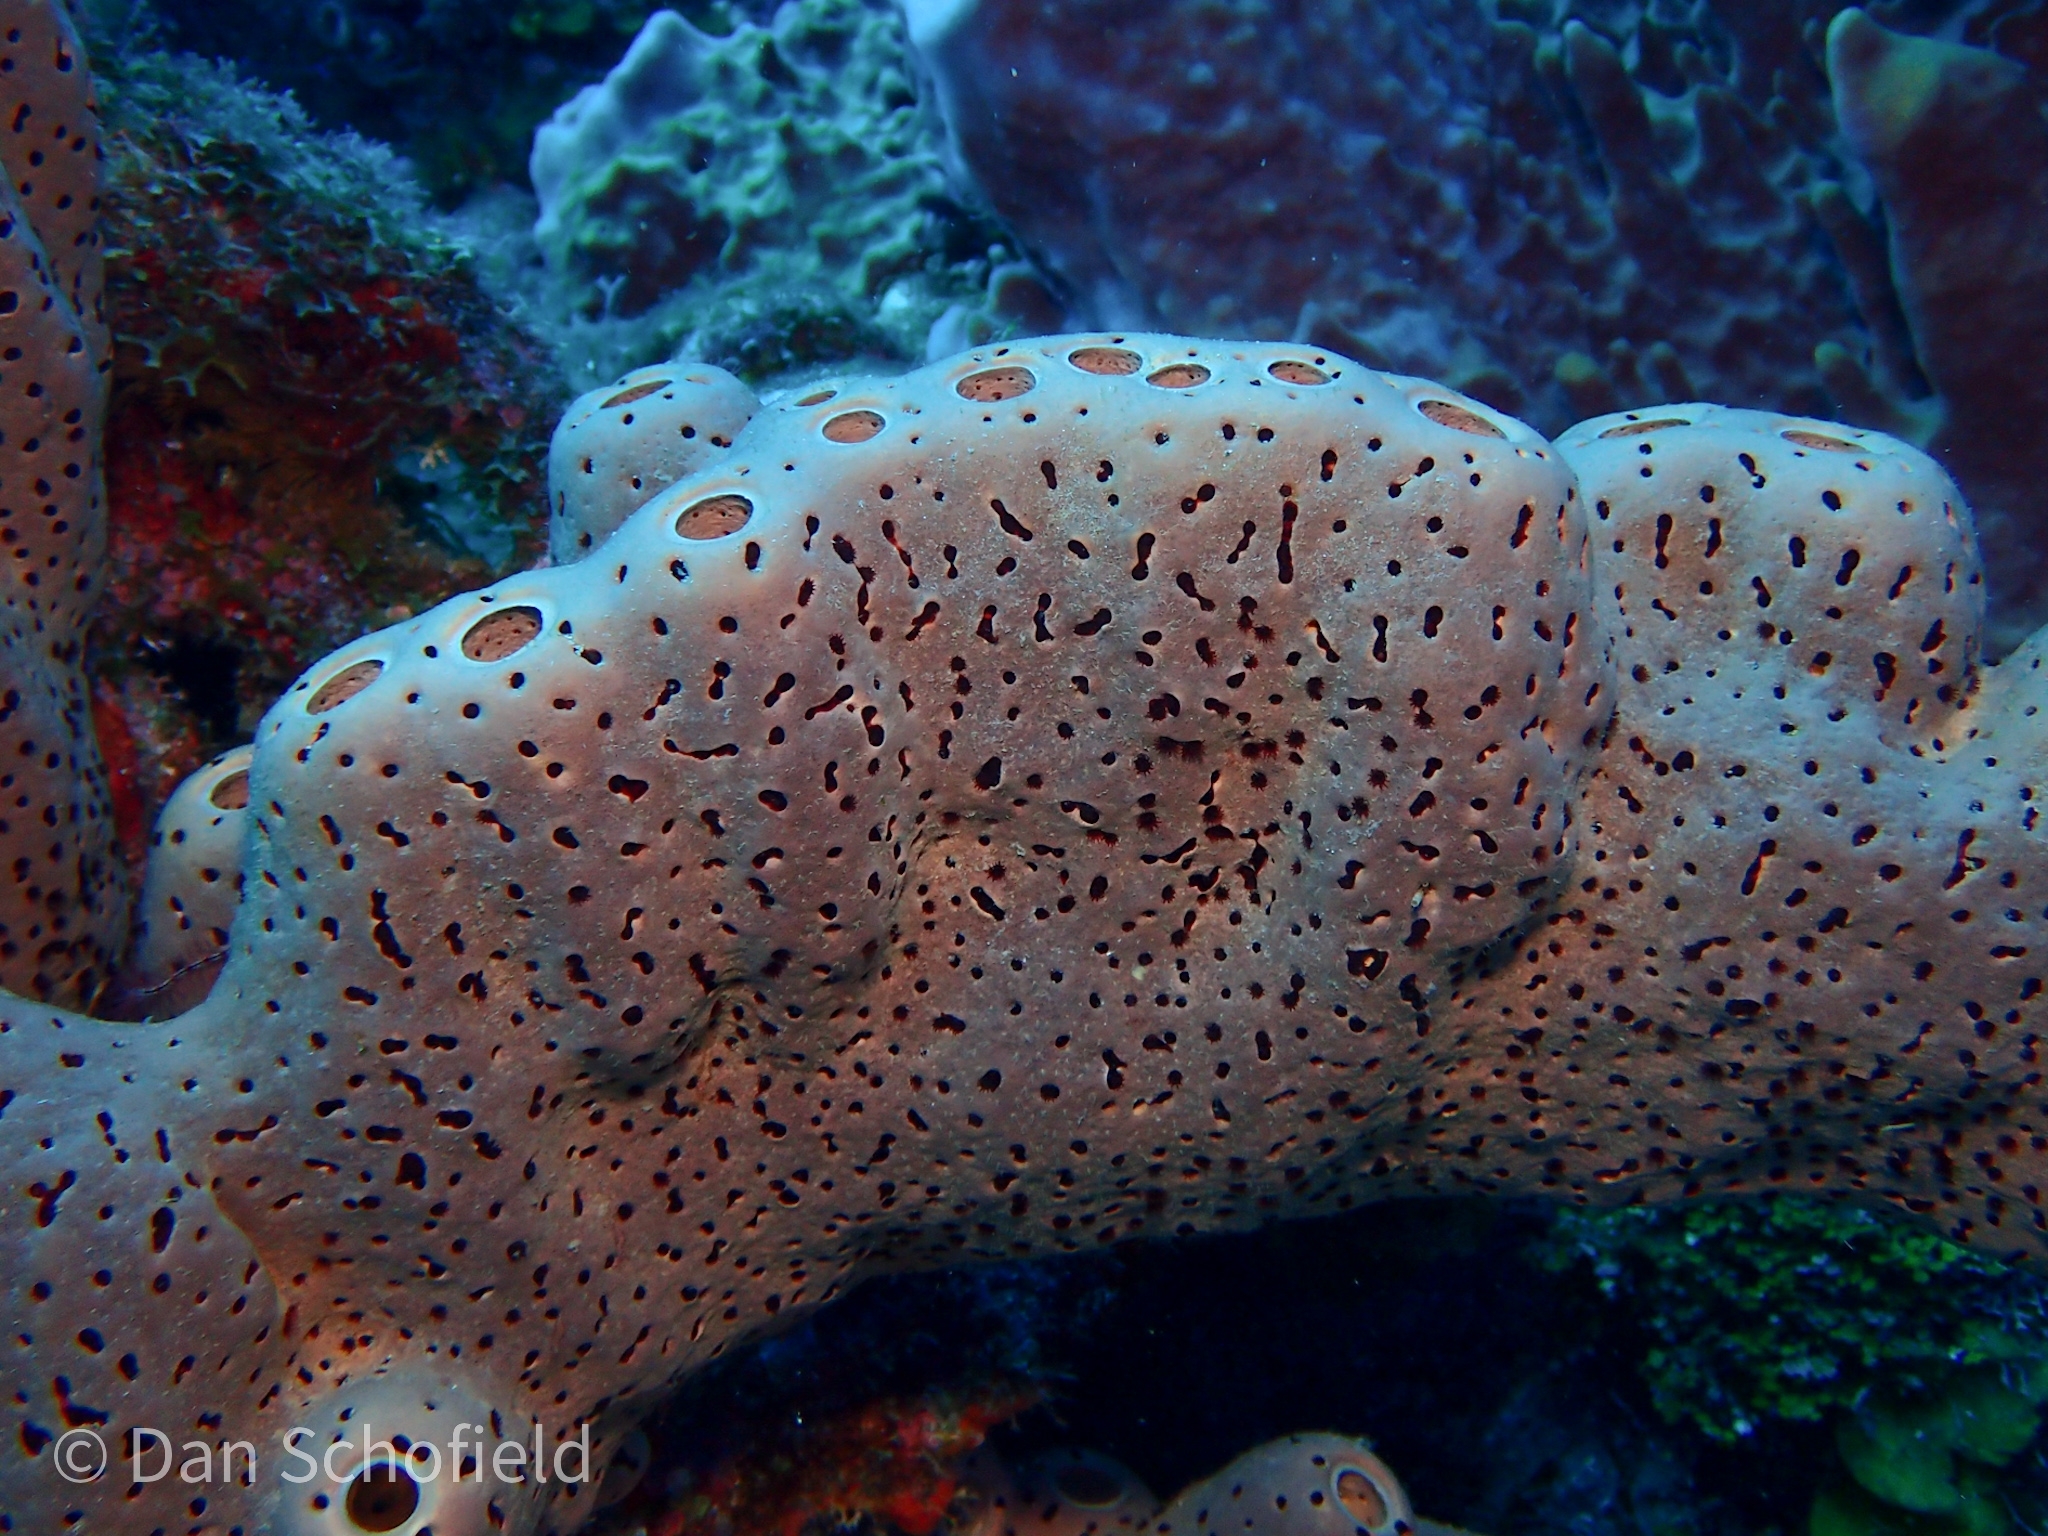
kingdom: Animalia
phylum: Porifera
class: Demospongiae
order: Agelasida
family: Agelasidae
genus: Agelas
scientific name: Agelas conifera
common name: Brown tube sponge
